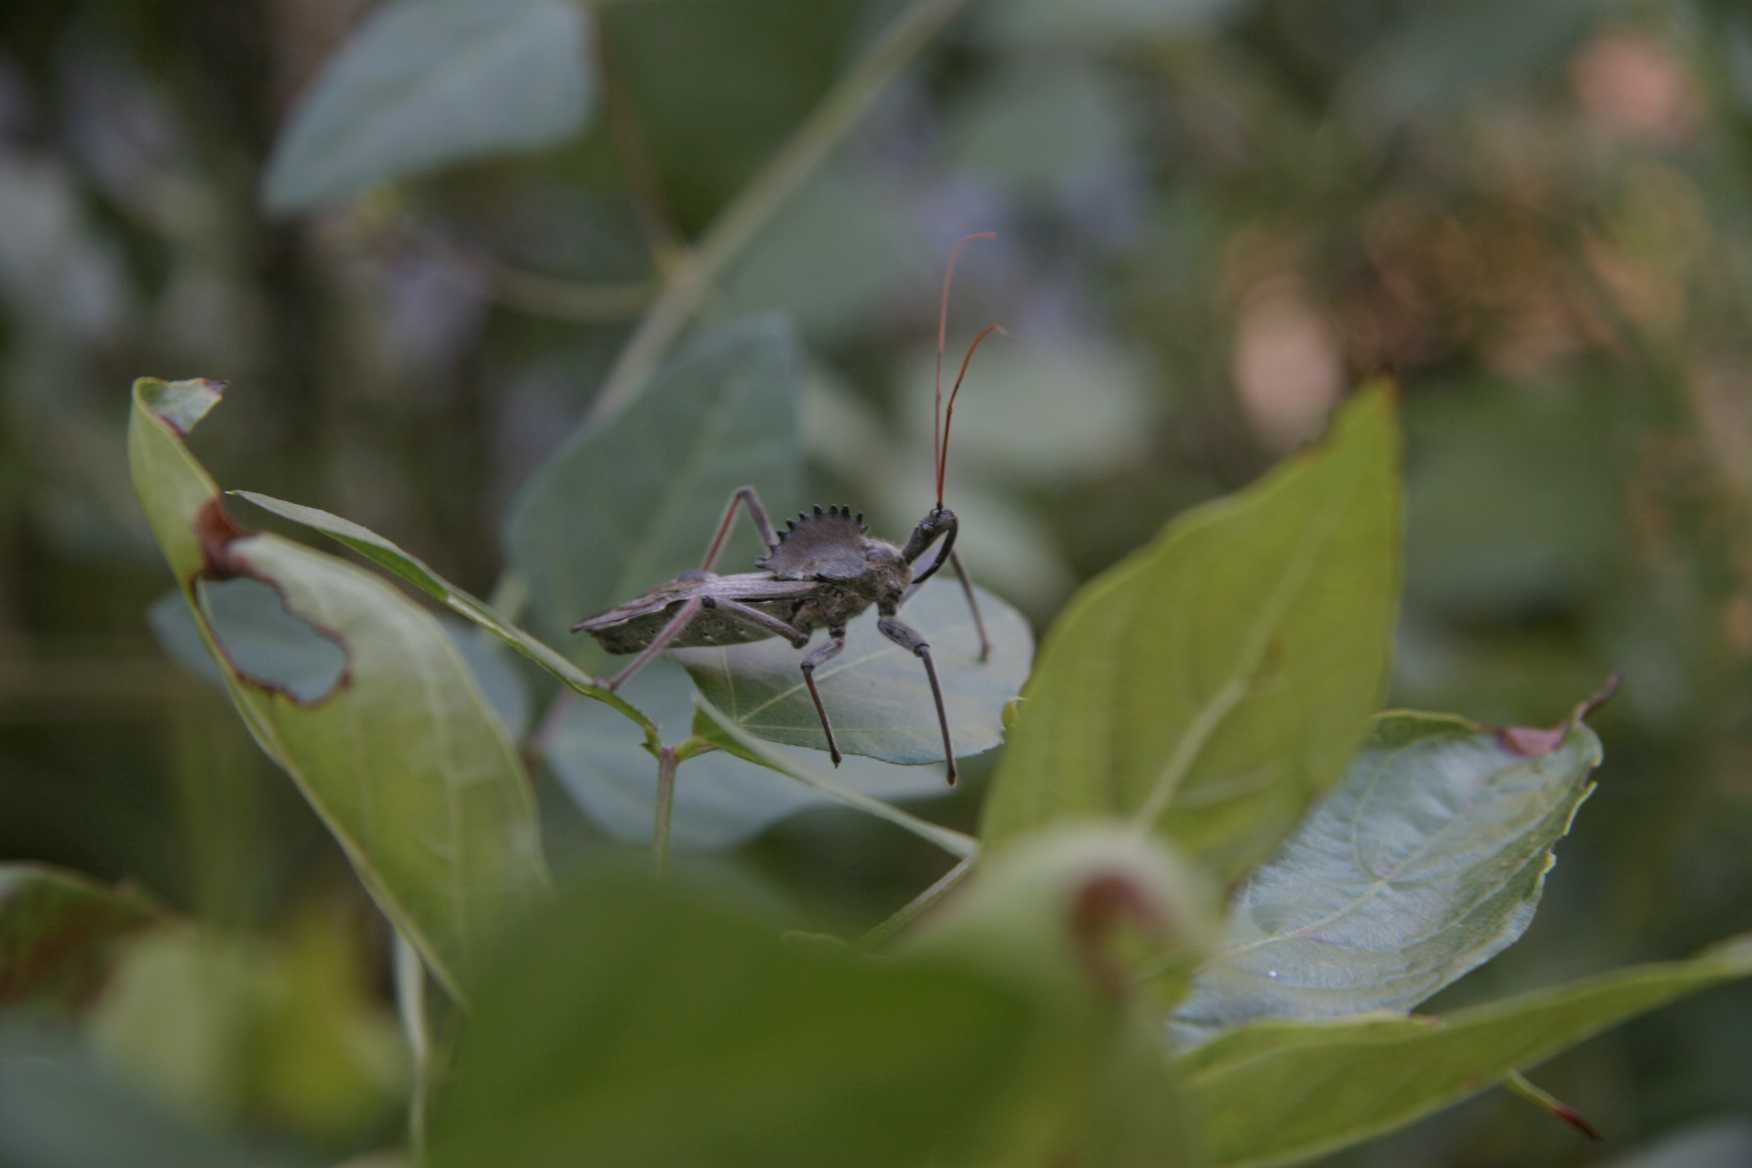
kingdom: Animalia
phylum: Arthropoda
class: Insecta
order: Hemiptera
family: Reduviidae
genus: Arilus
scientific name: Arilus cristatus
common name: North american wheel bug
